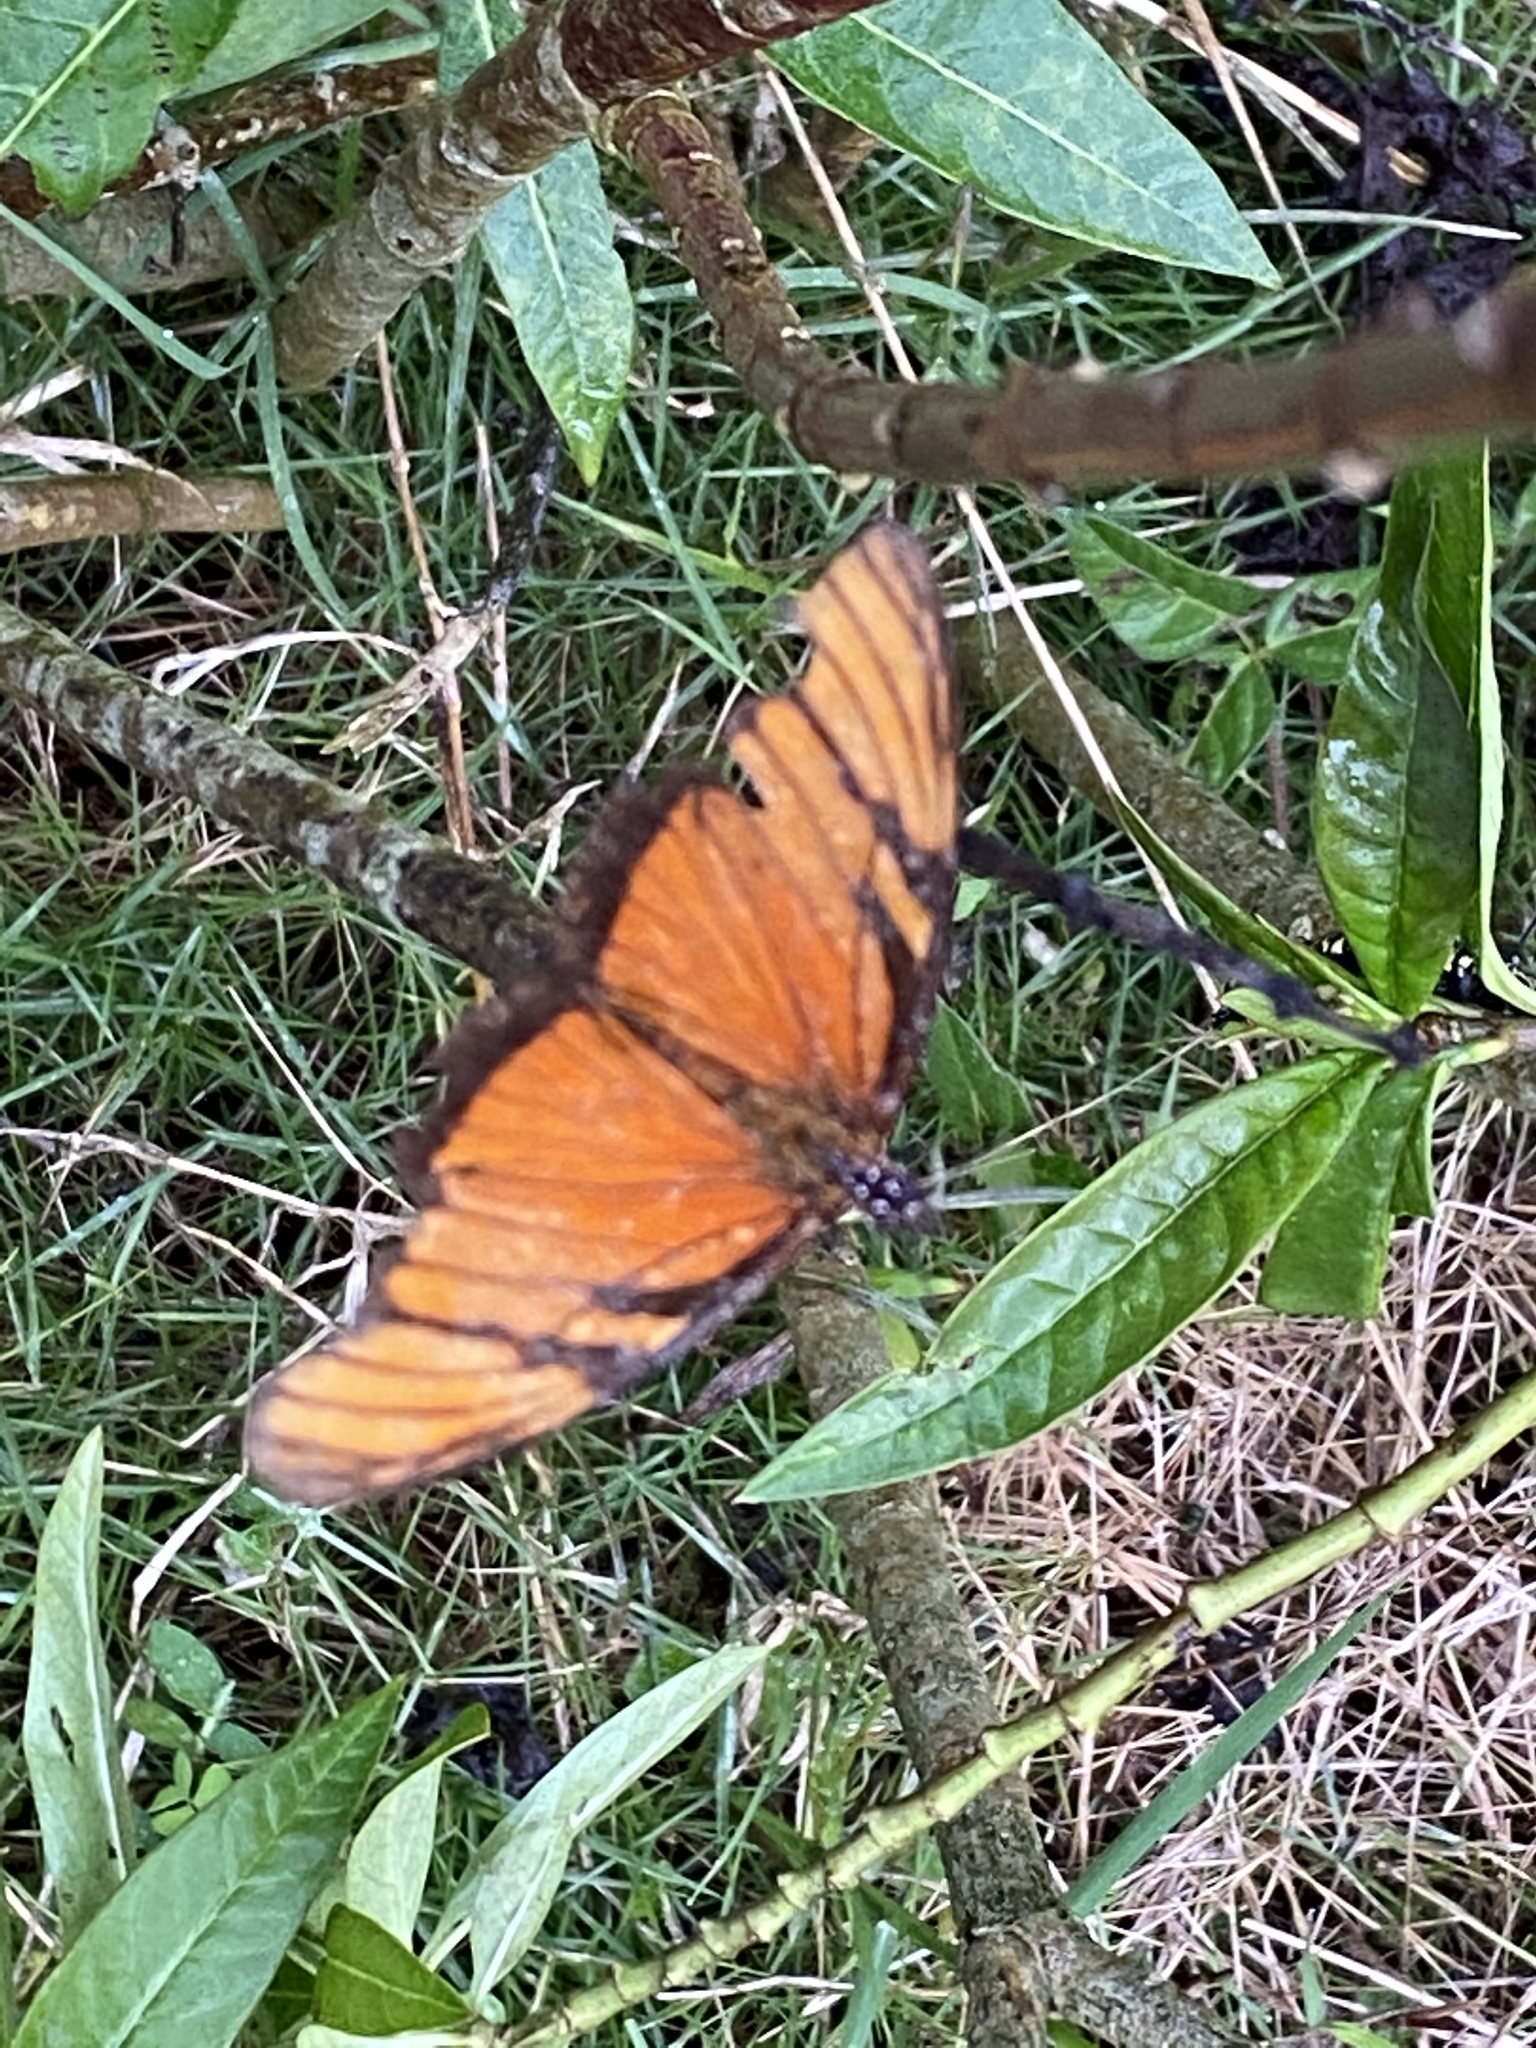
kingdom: Animalia
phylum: Arthropoda
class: Insecta
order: Lepidoptera
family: Nymphalidae
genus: Dione
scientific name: Dione juno
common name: Juno silverspot
